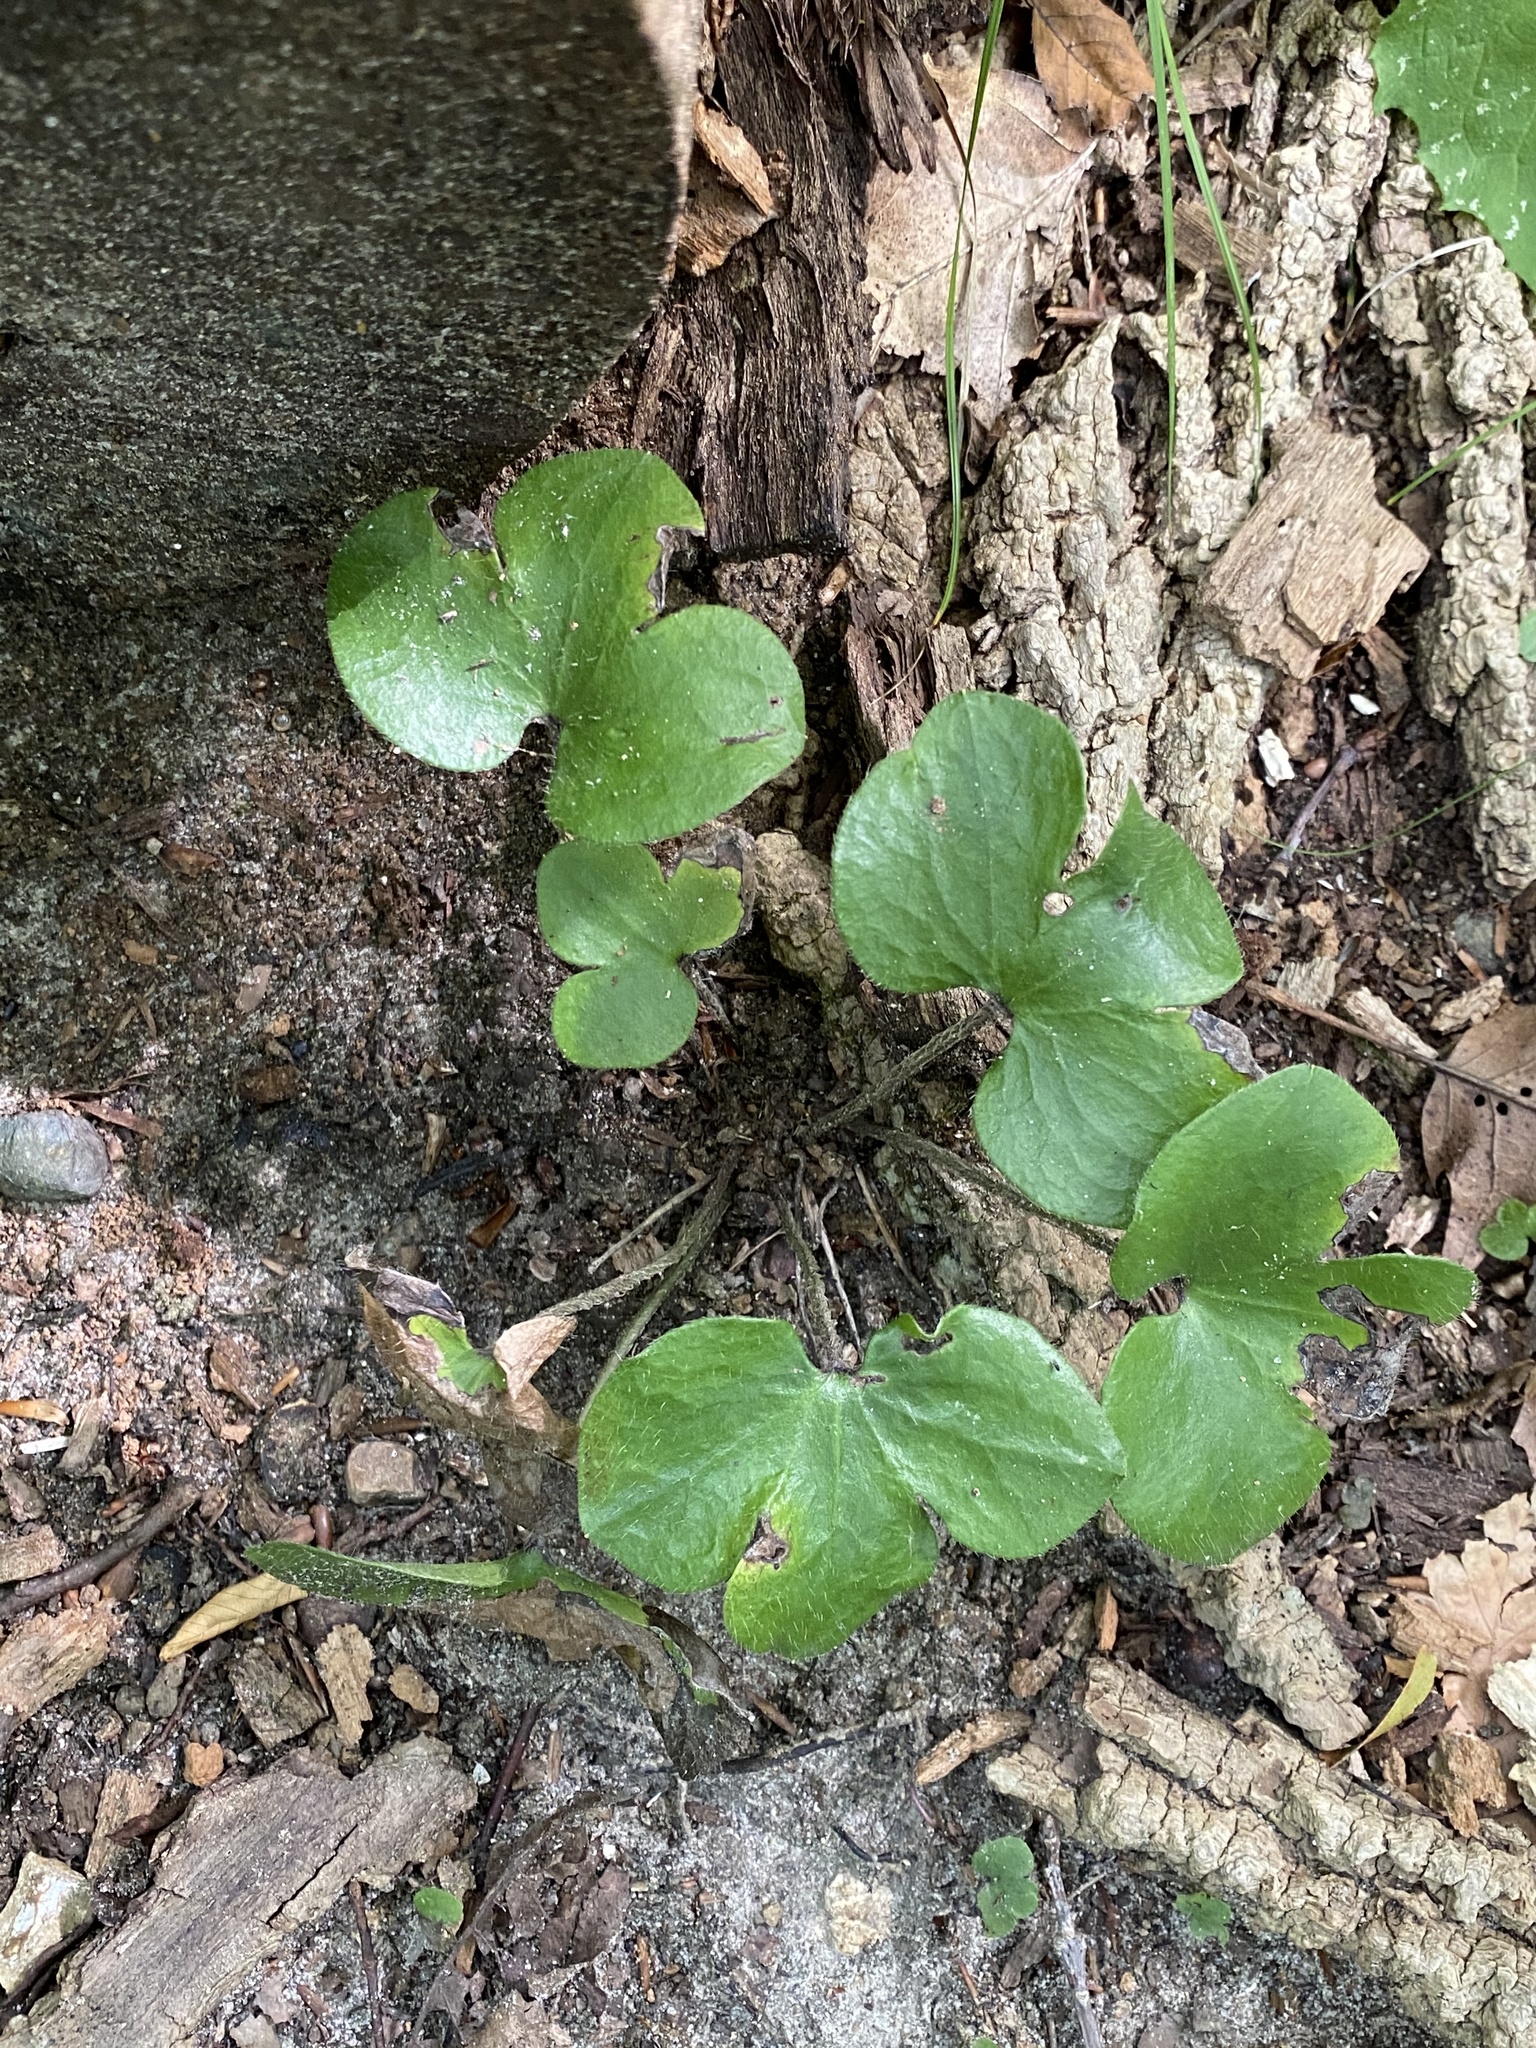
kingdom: Plantae
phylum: Tracheophyta
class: Magnoliopsida
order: Ranunculales
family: Ranunculaceae
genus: Hepatica
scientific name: Hepatica americana
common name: American hepatica
